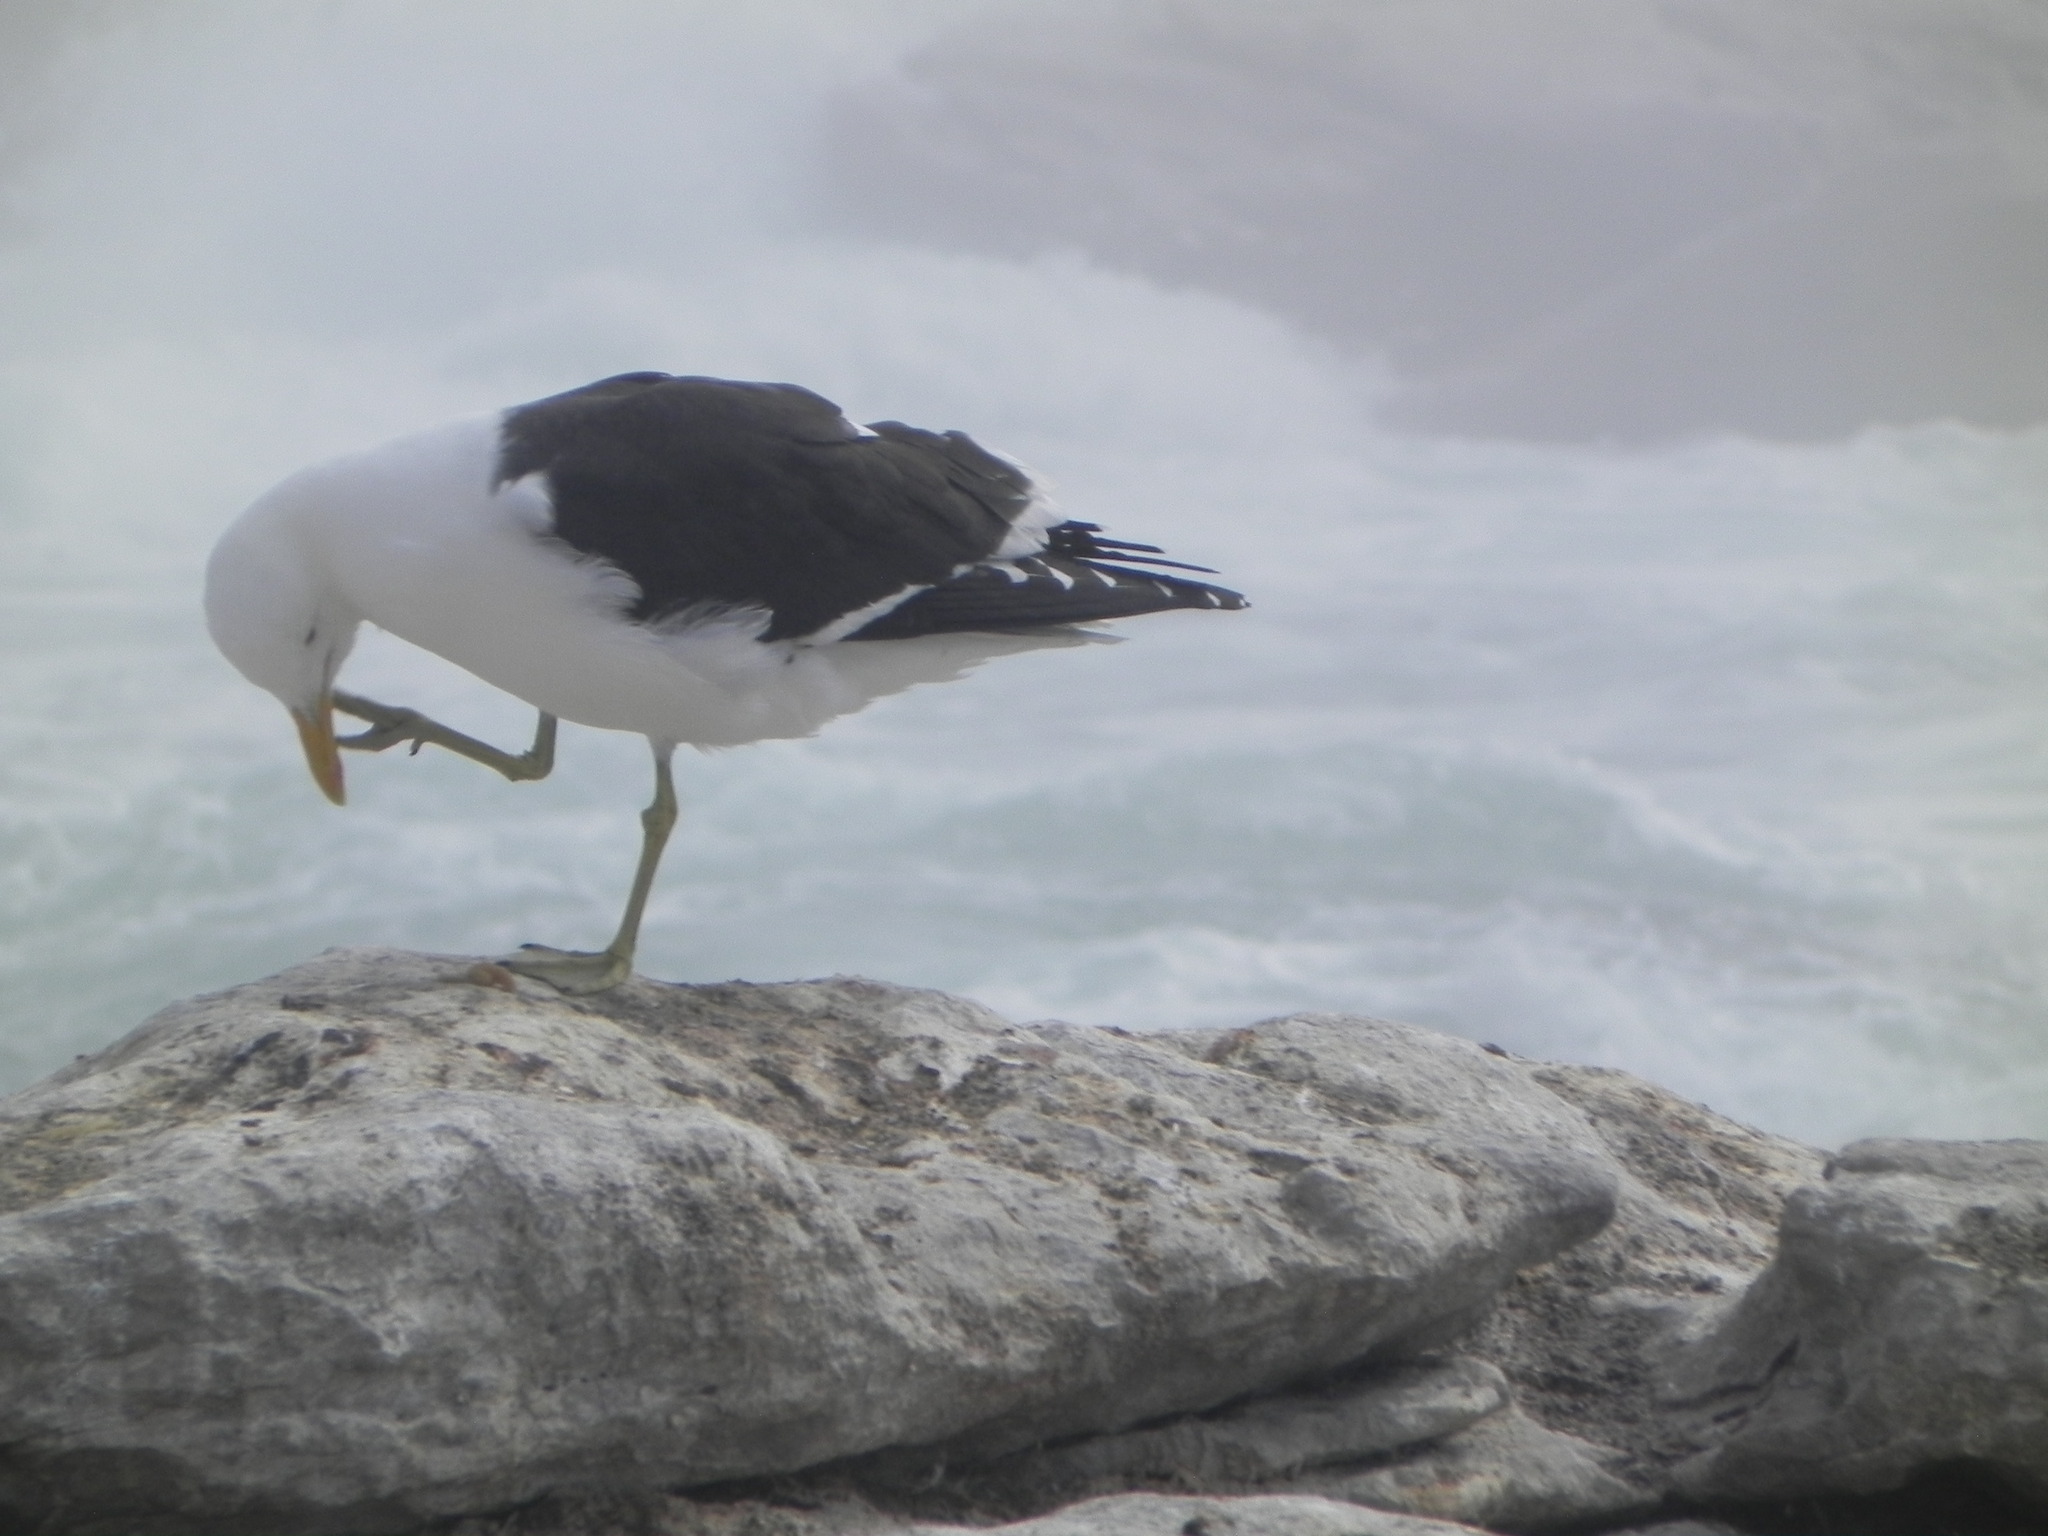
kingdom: Animalia
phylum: Chordata
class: Aves
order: Charadriiformes
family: Laridae
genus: Larus
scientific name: Larus dominicanus
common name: Kelp gull
